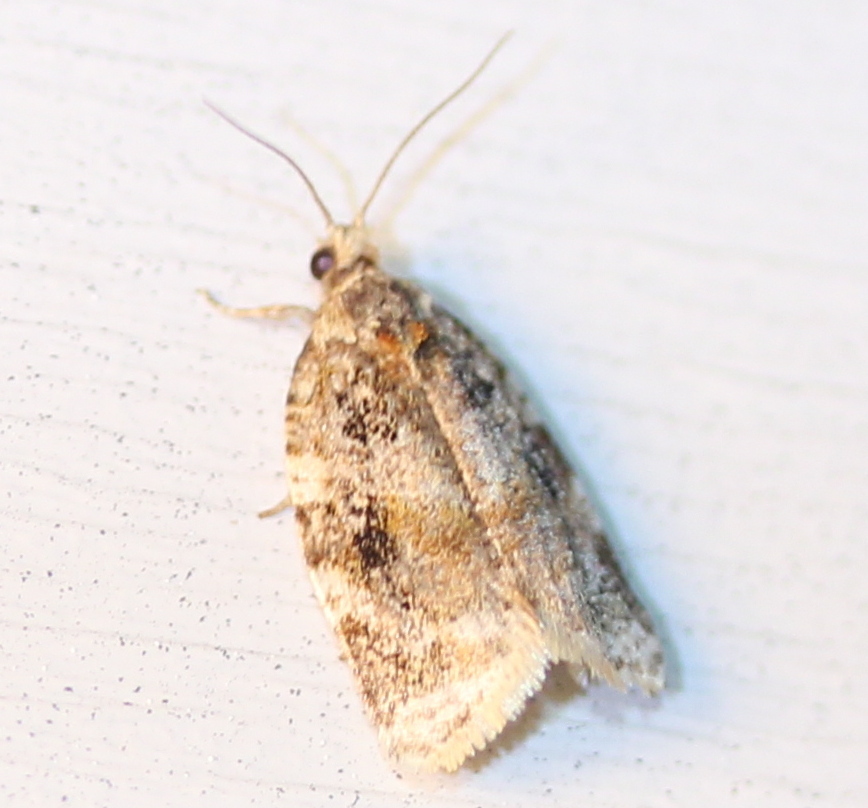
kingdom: Animalia
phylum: Arthropoda
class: Insecta
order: Lepidoptera
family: Tortricidae
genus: Argyrotaenia
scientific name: Argyrotaenia velutinana
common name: Red-banded leafroller moth
